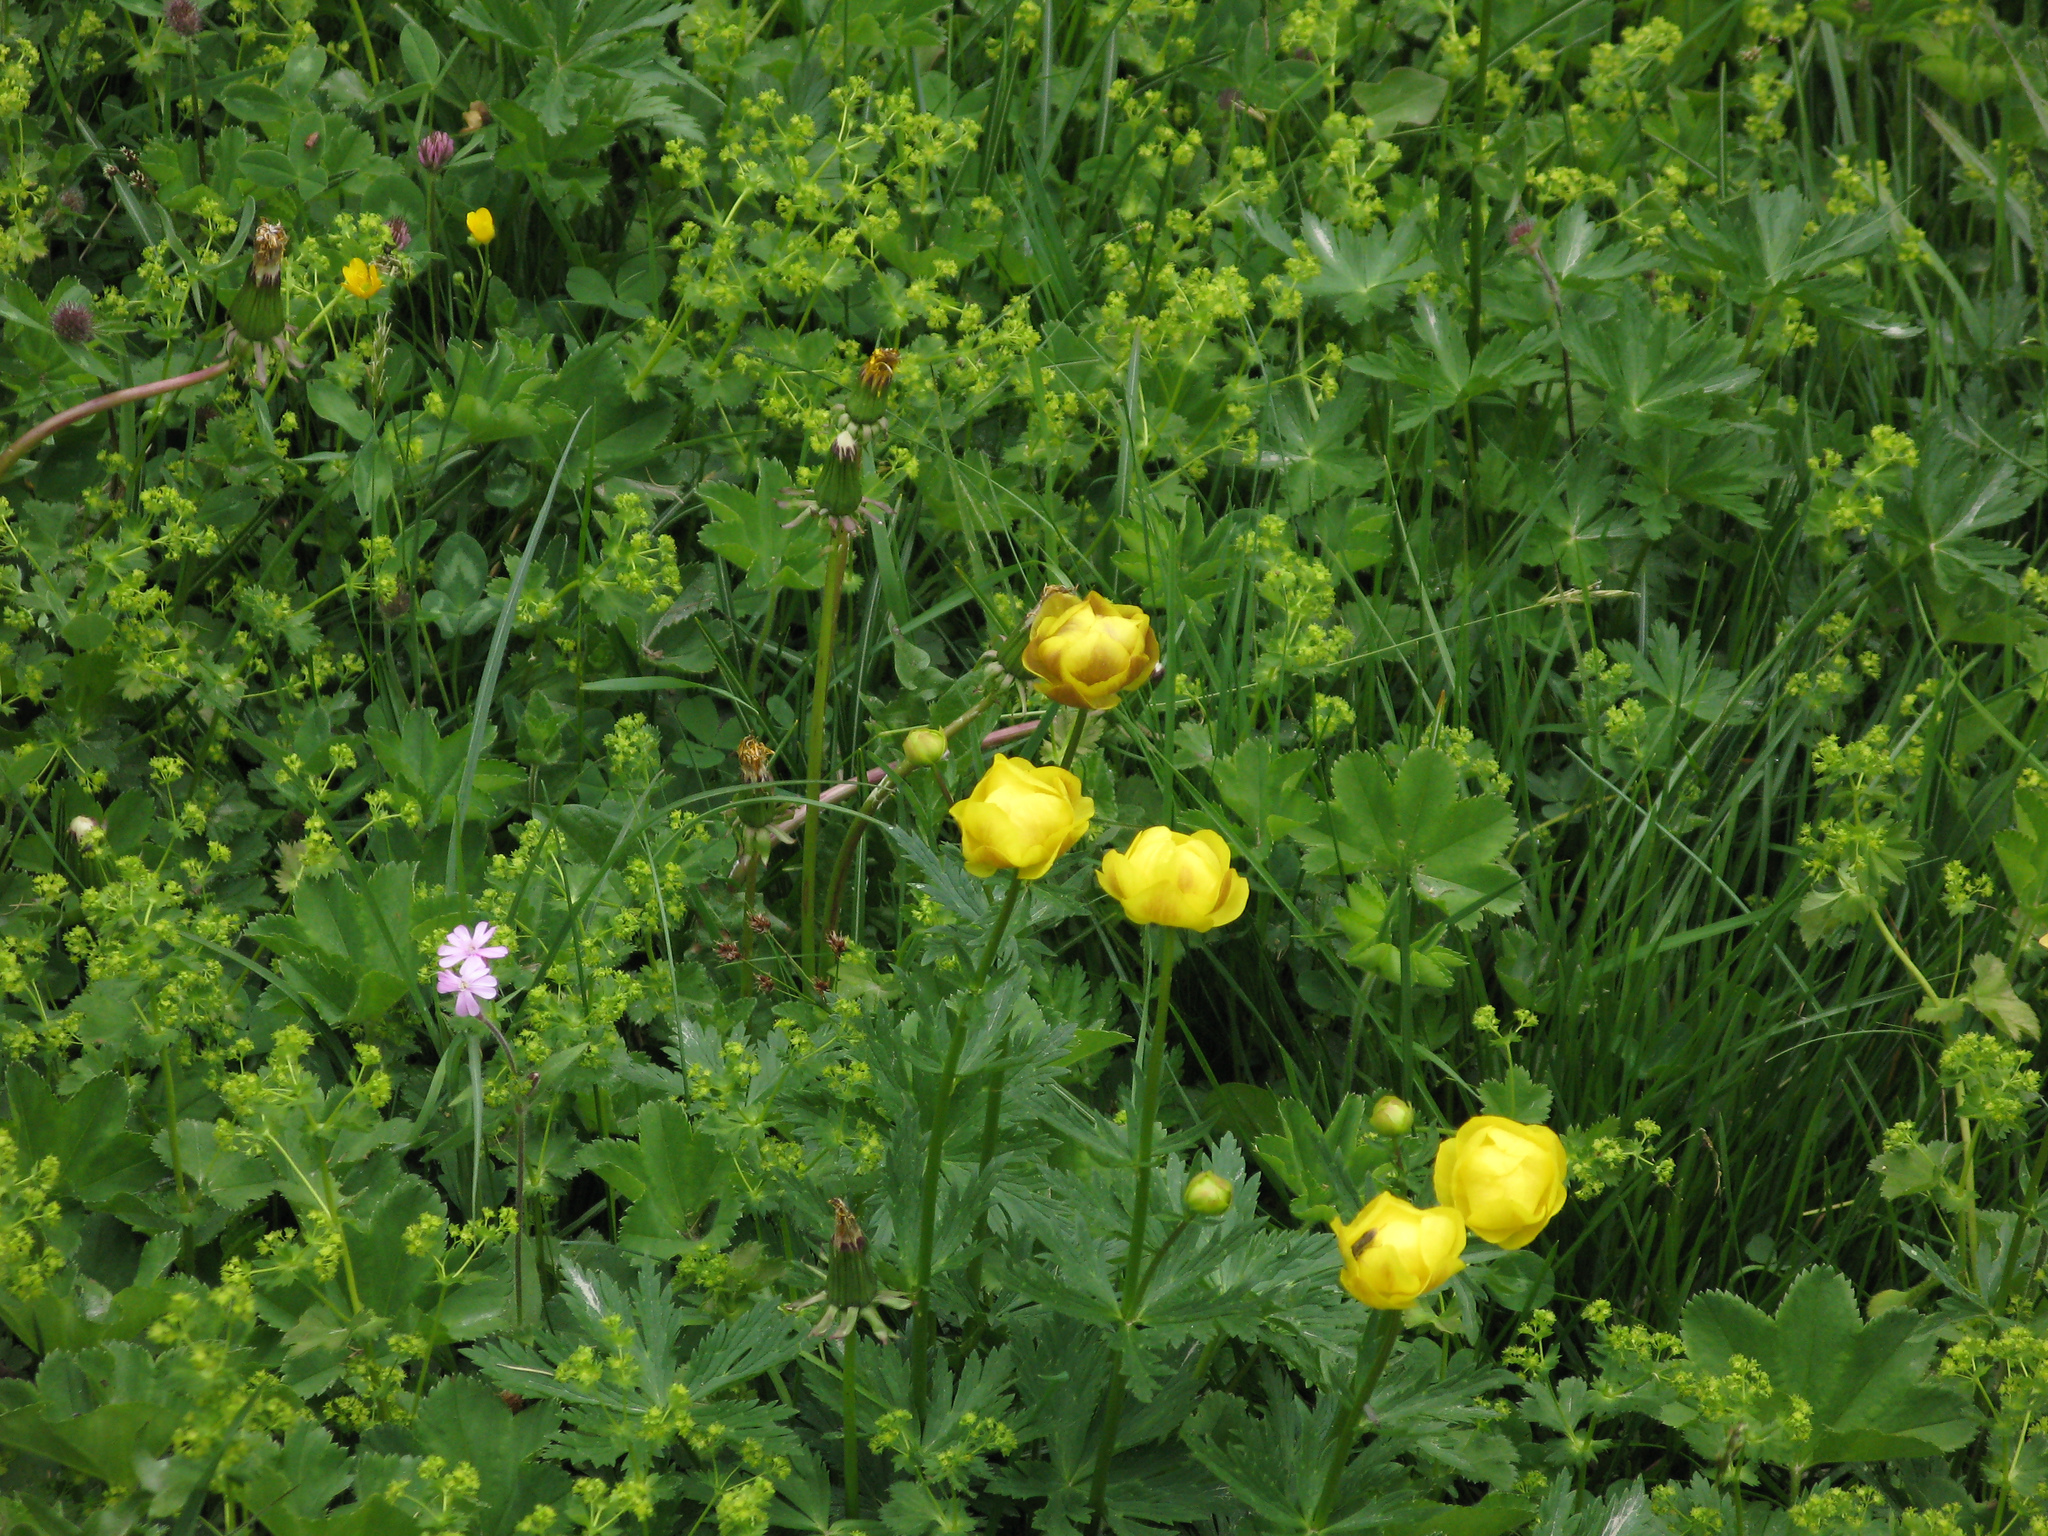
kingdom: Plantae
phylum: Tracheophyta
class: Magnoliopsida
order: Ranunculales
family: Ranunculaceae
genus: Trollius
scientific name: Trollius europaeus
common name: European globeflower
